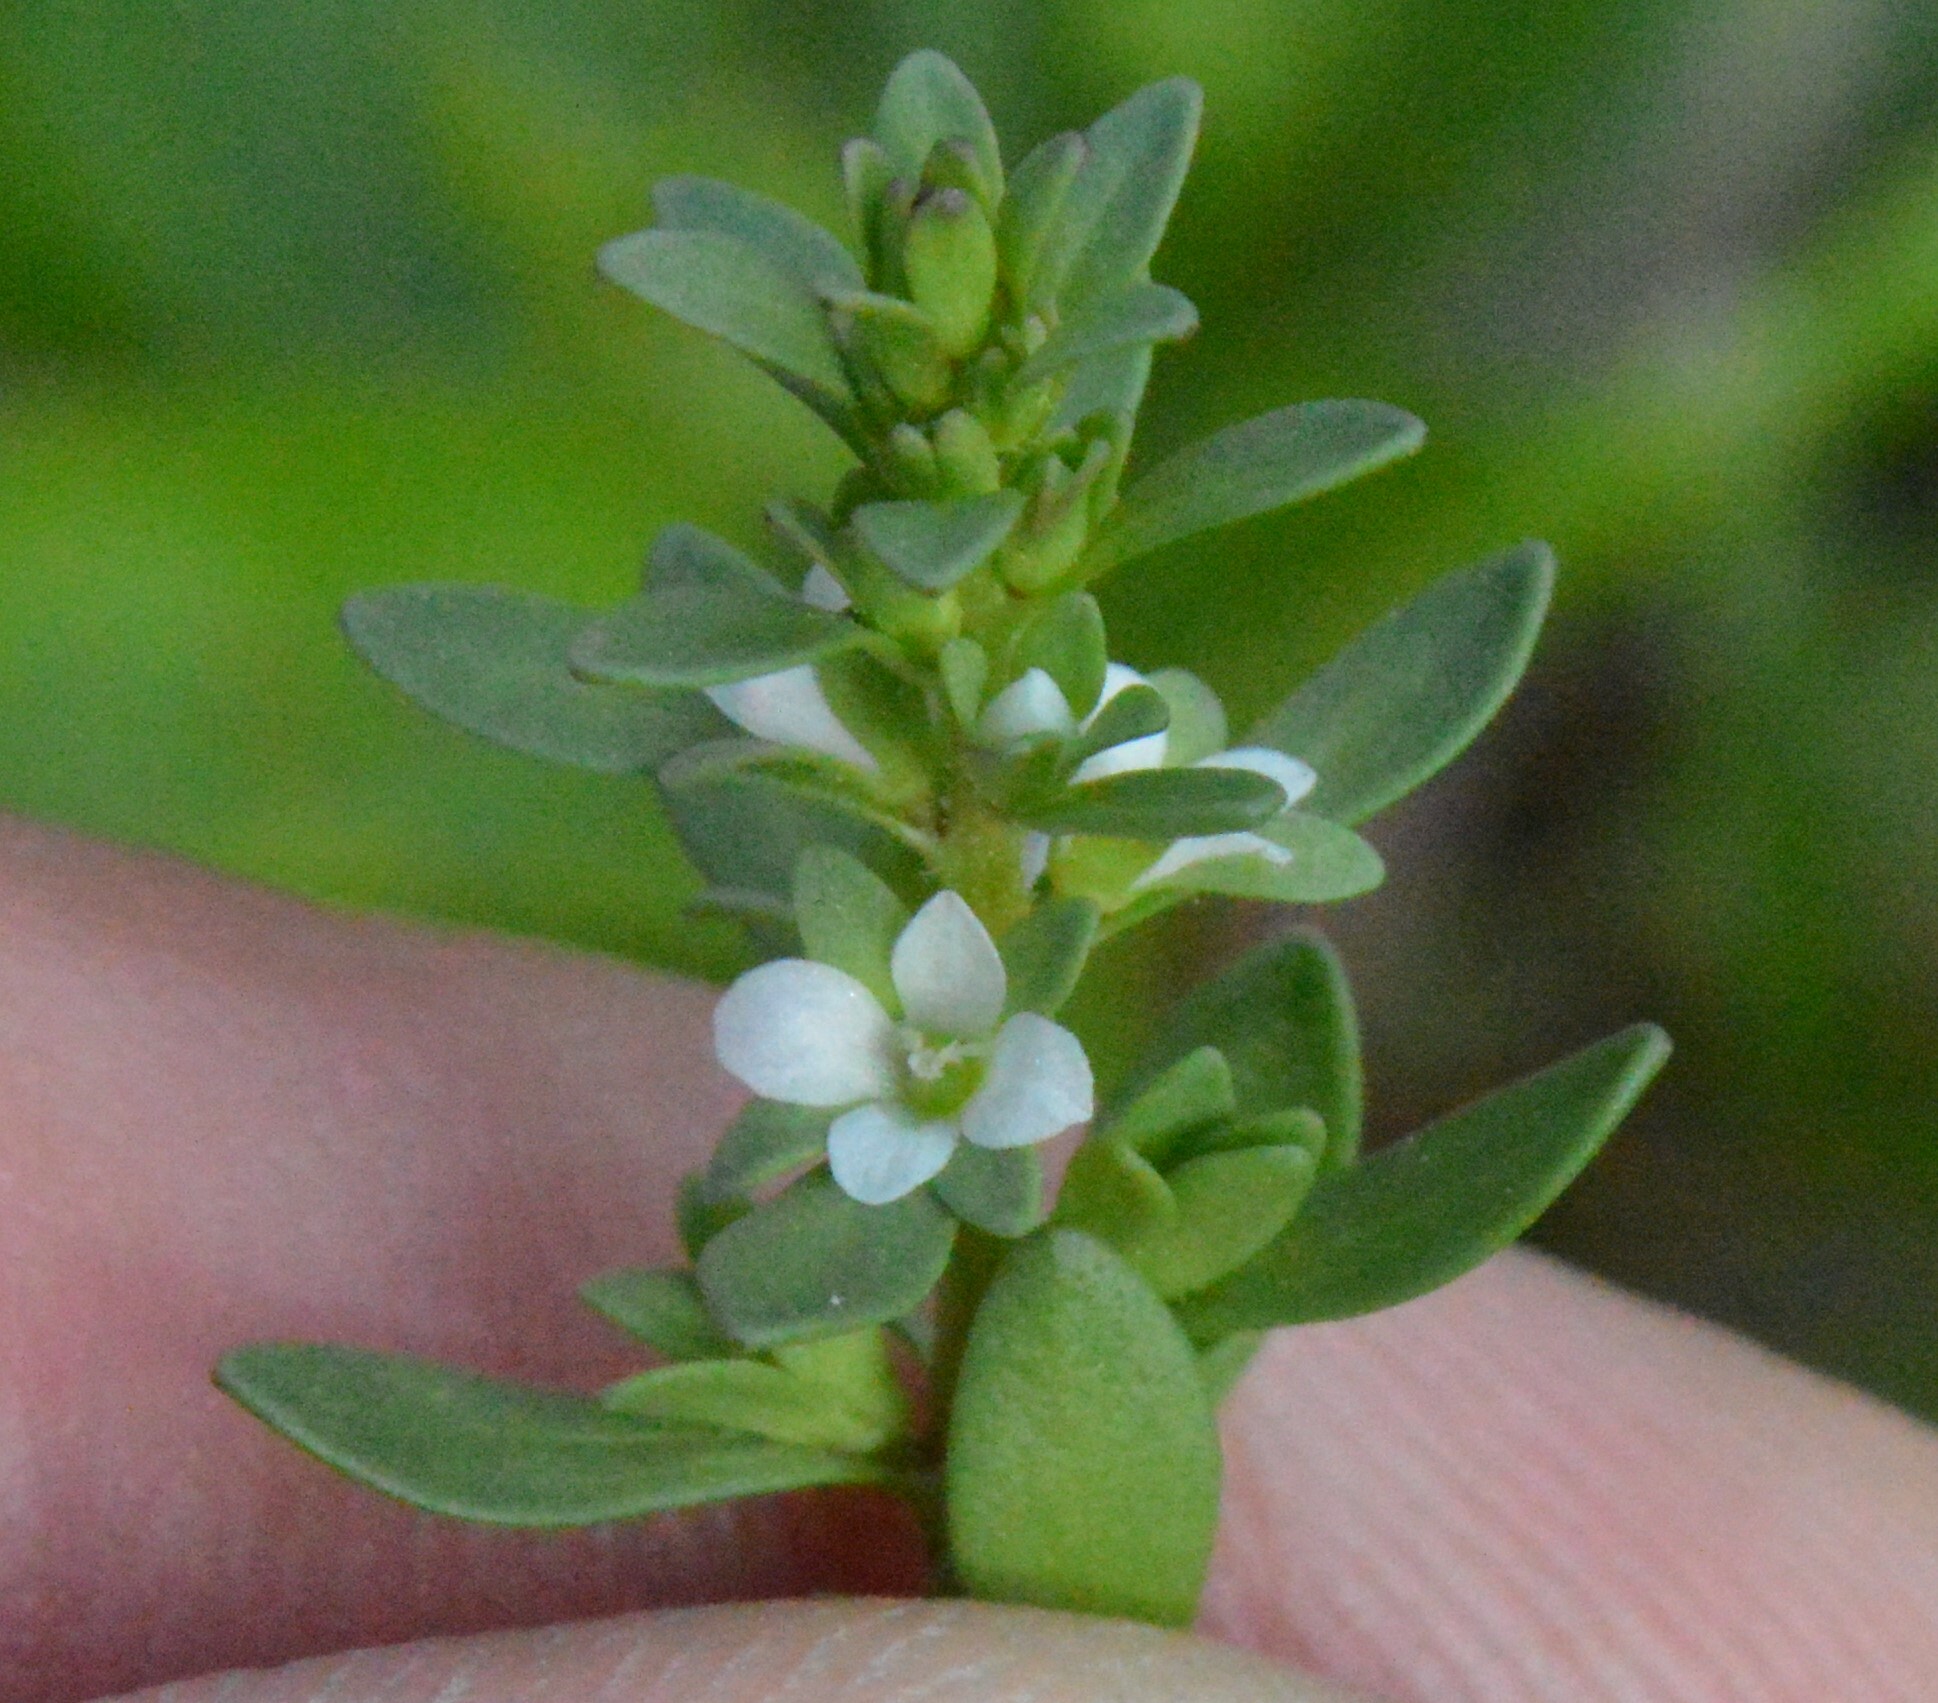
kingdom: Plantae
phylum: Tracheophyta
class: Magnoliopsida
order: Lamiales
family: Plantaginaceae
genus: Veronica
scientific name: Veronica peregrina
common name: Neckweed
